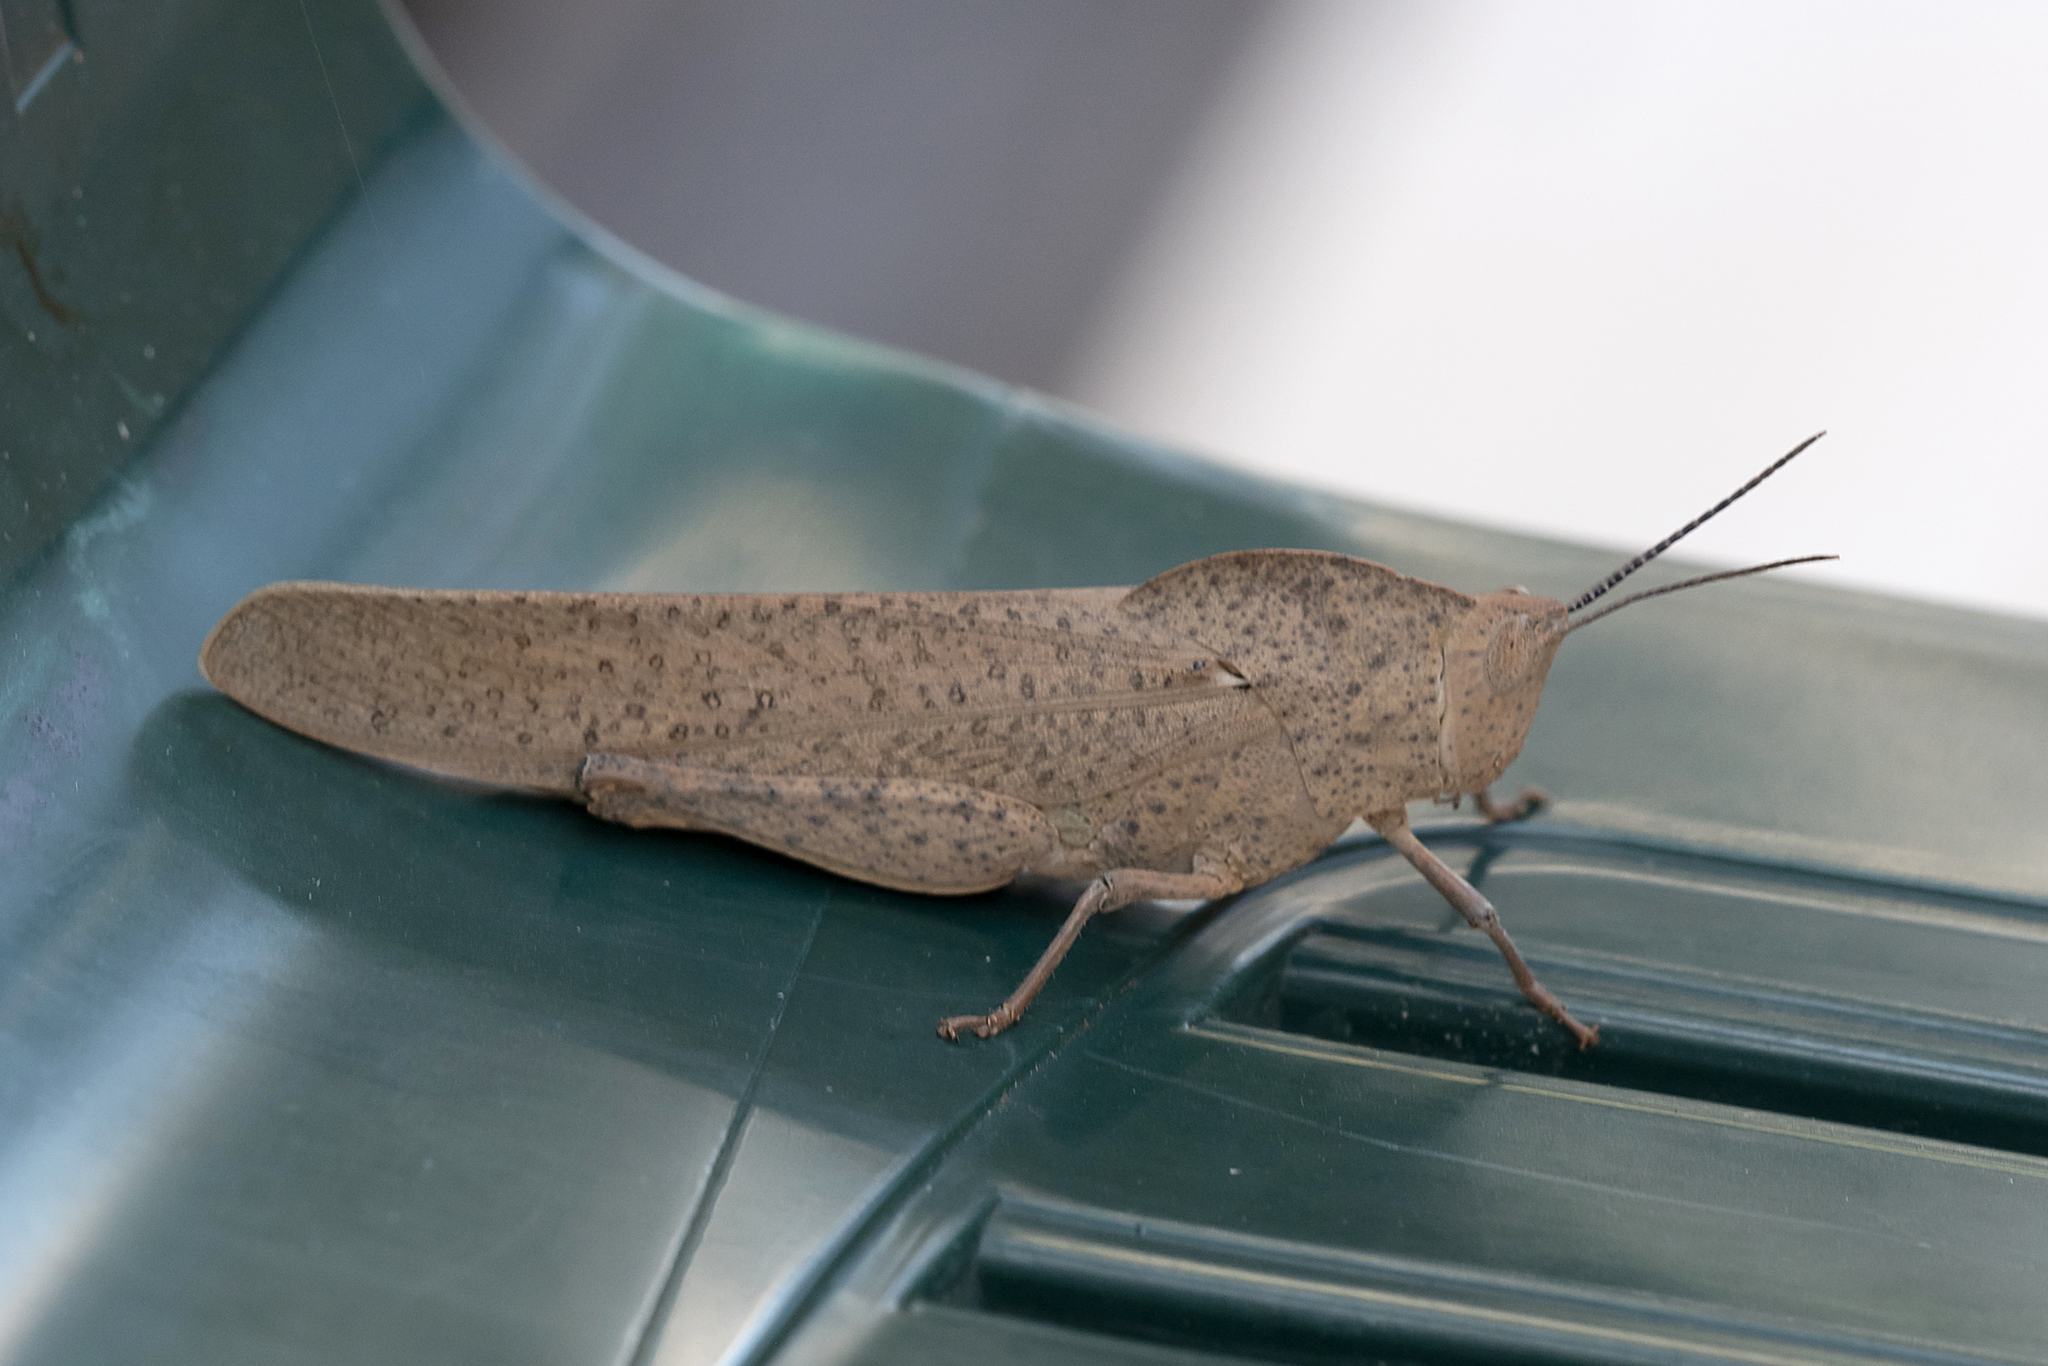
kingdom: Animalia
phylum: Arthropoda
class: Insecta
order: Orthoptera
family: Acrididae
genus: Goniaea
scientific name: Goniaea australasiae
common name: Gumleaf grasshopper
